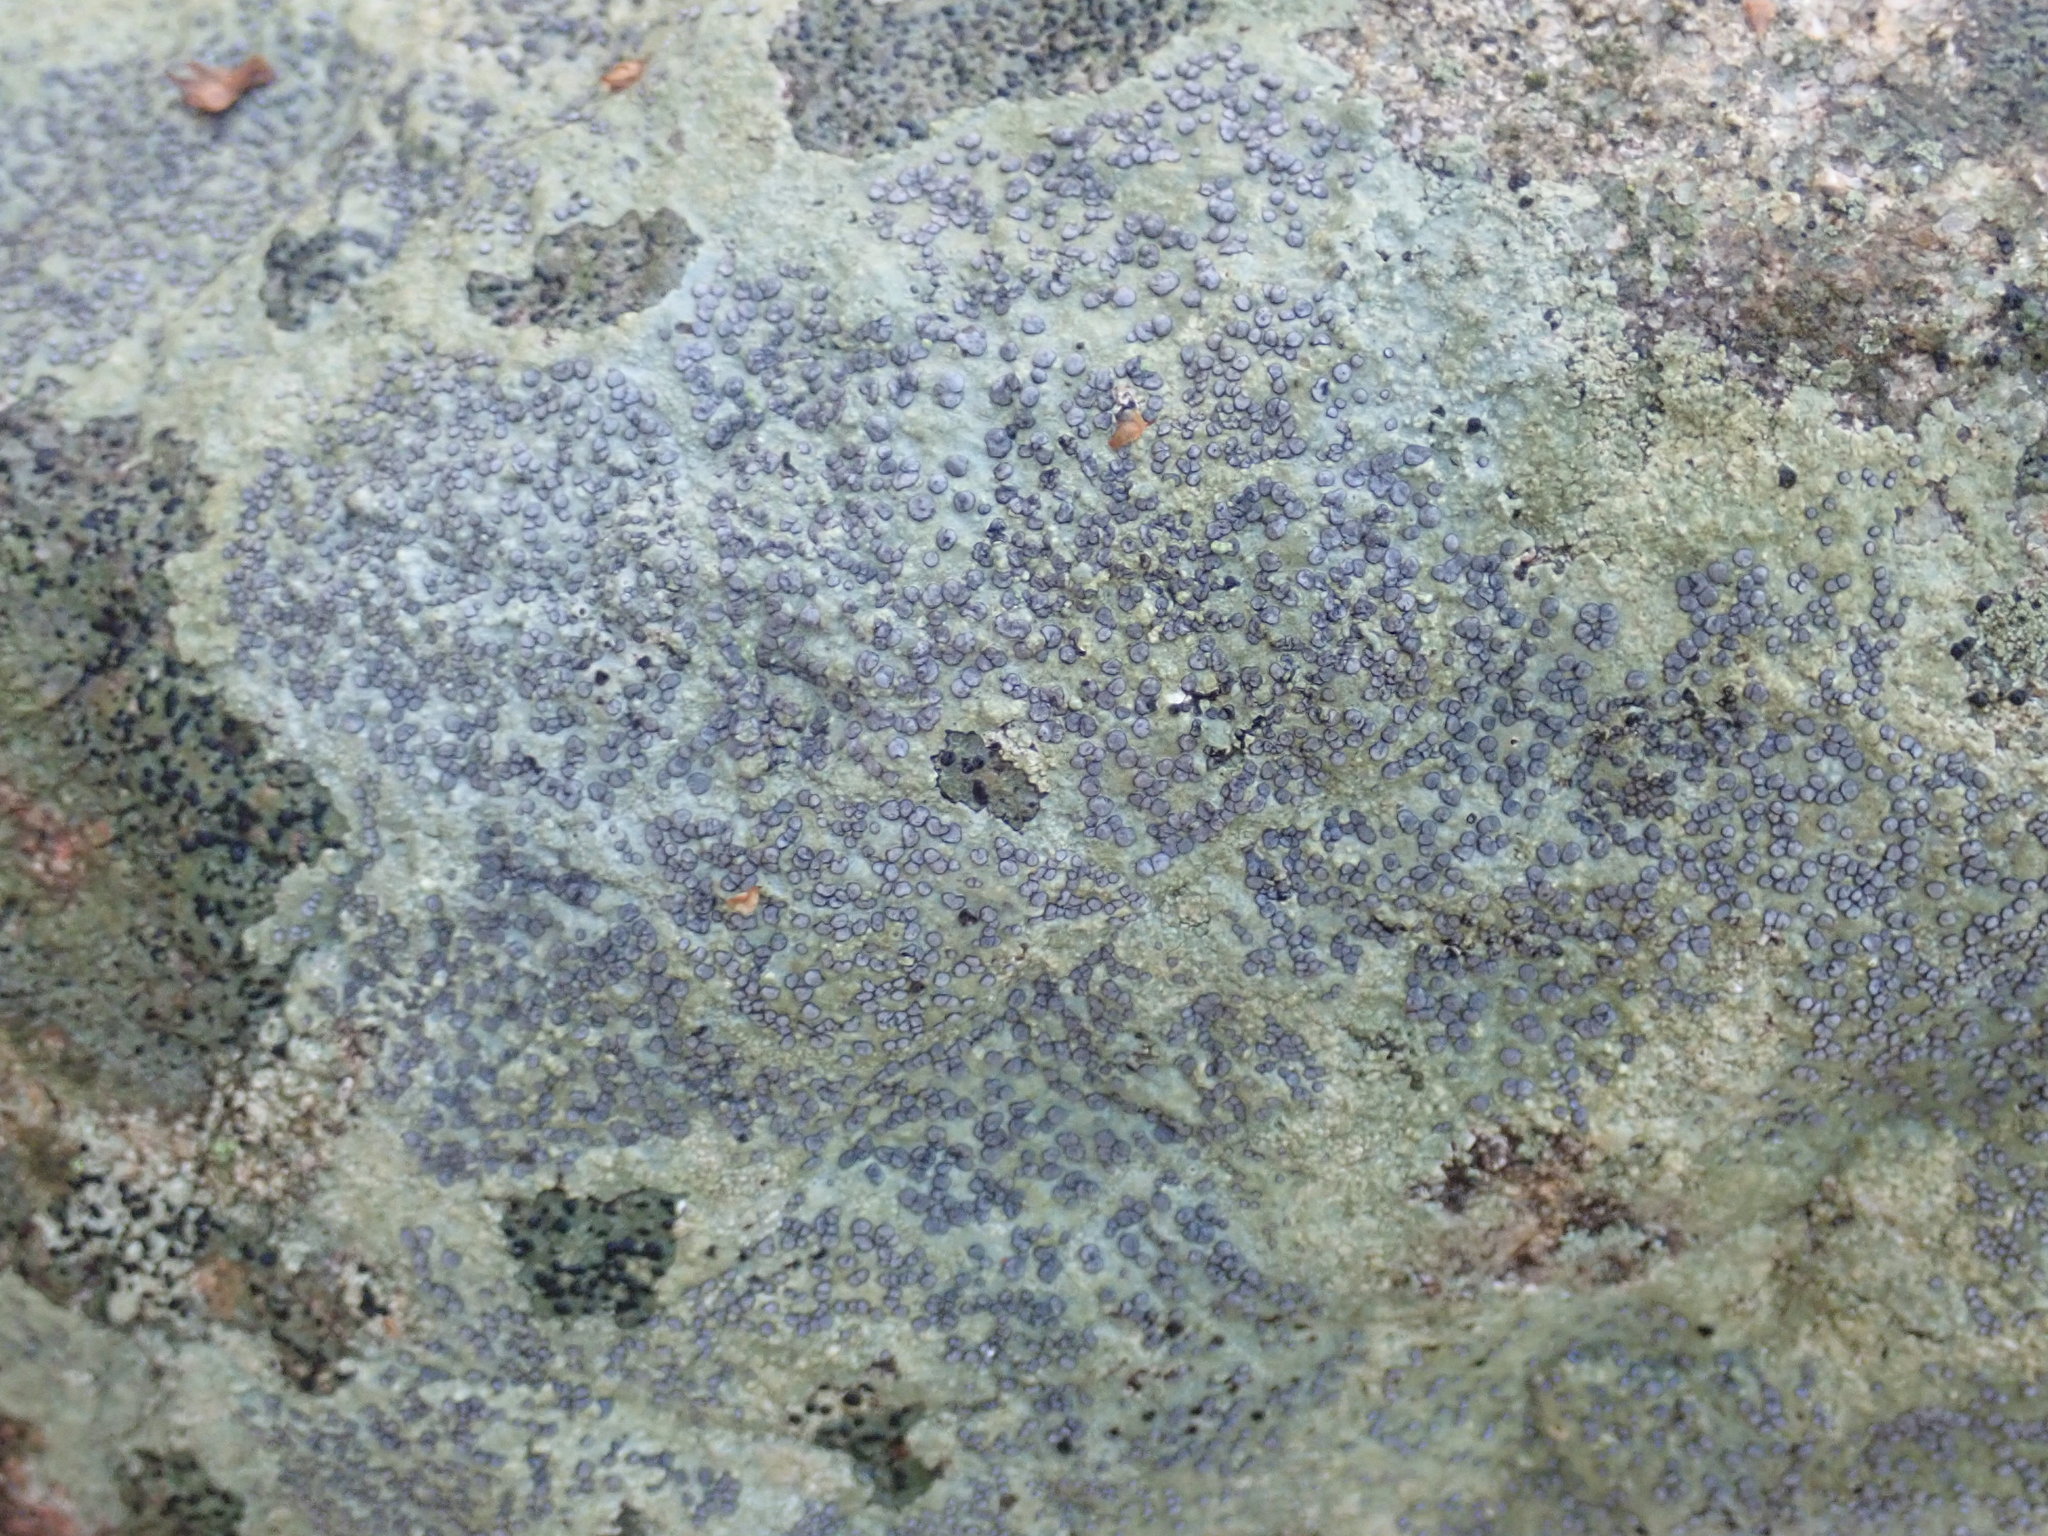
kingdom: Fungi
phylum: Ascomycota
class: Lecanoromycetes
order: Lecideales
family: Lecideaceae
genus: Porpidia
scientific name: Porpidia albocaerulescens
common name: Smokey-eyed boulder lichen
